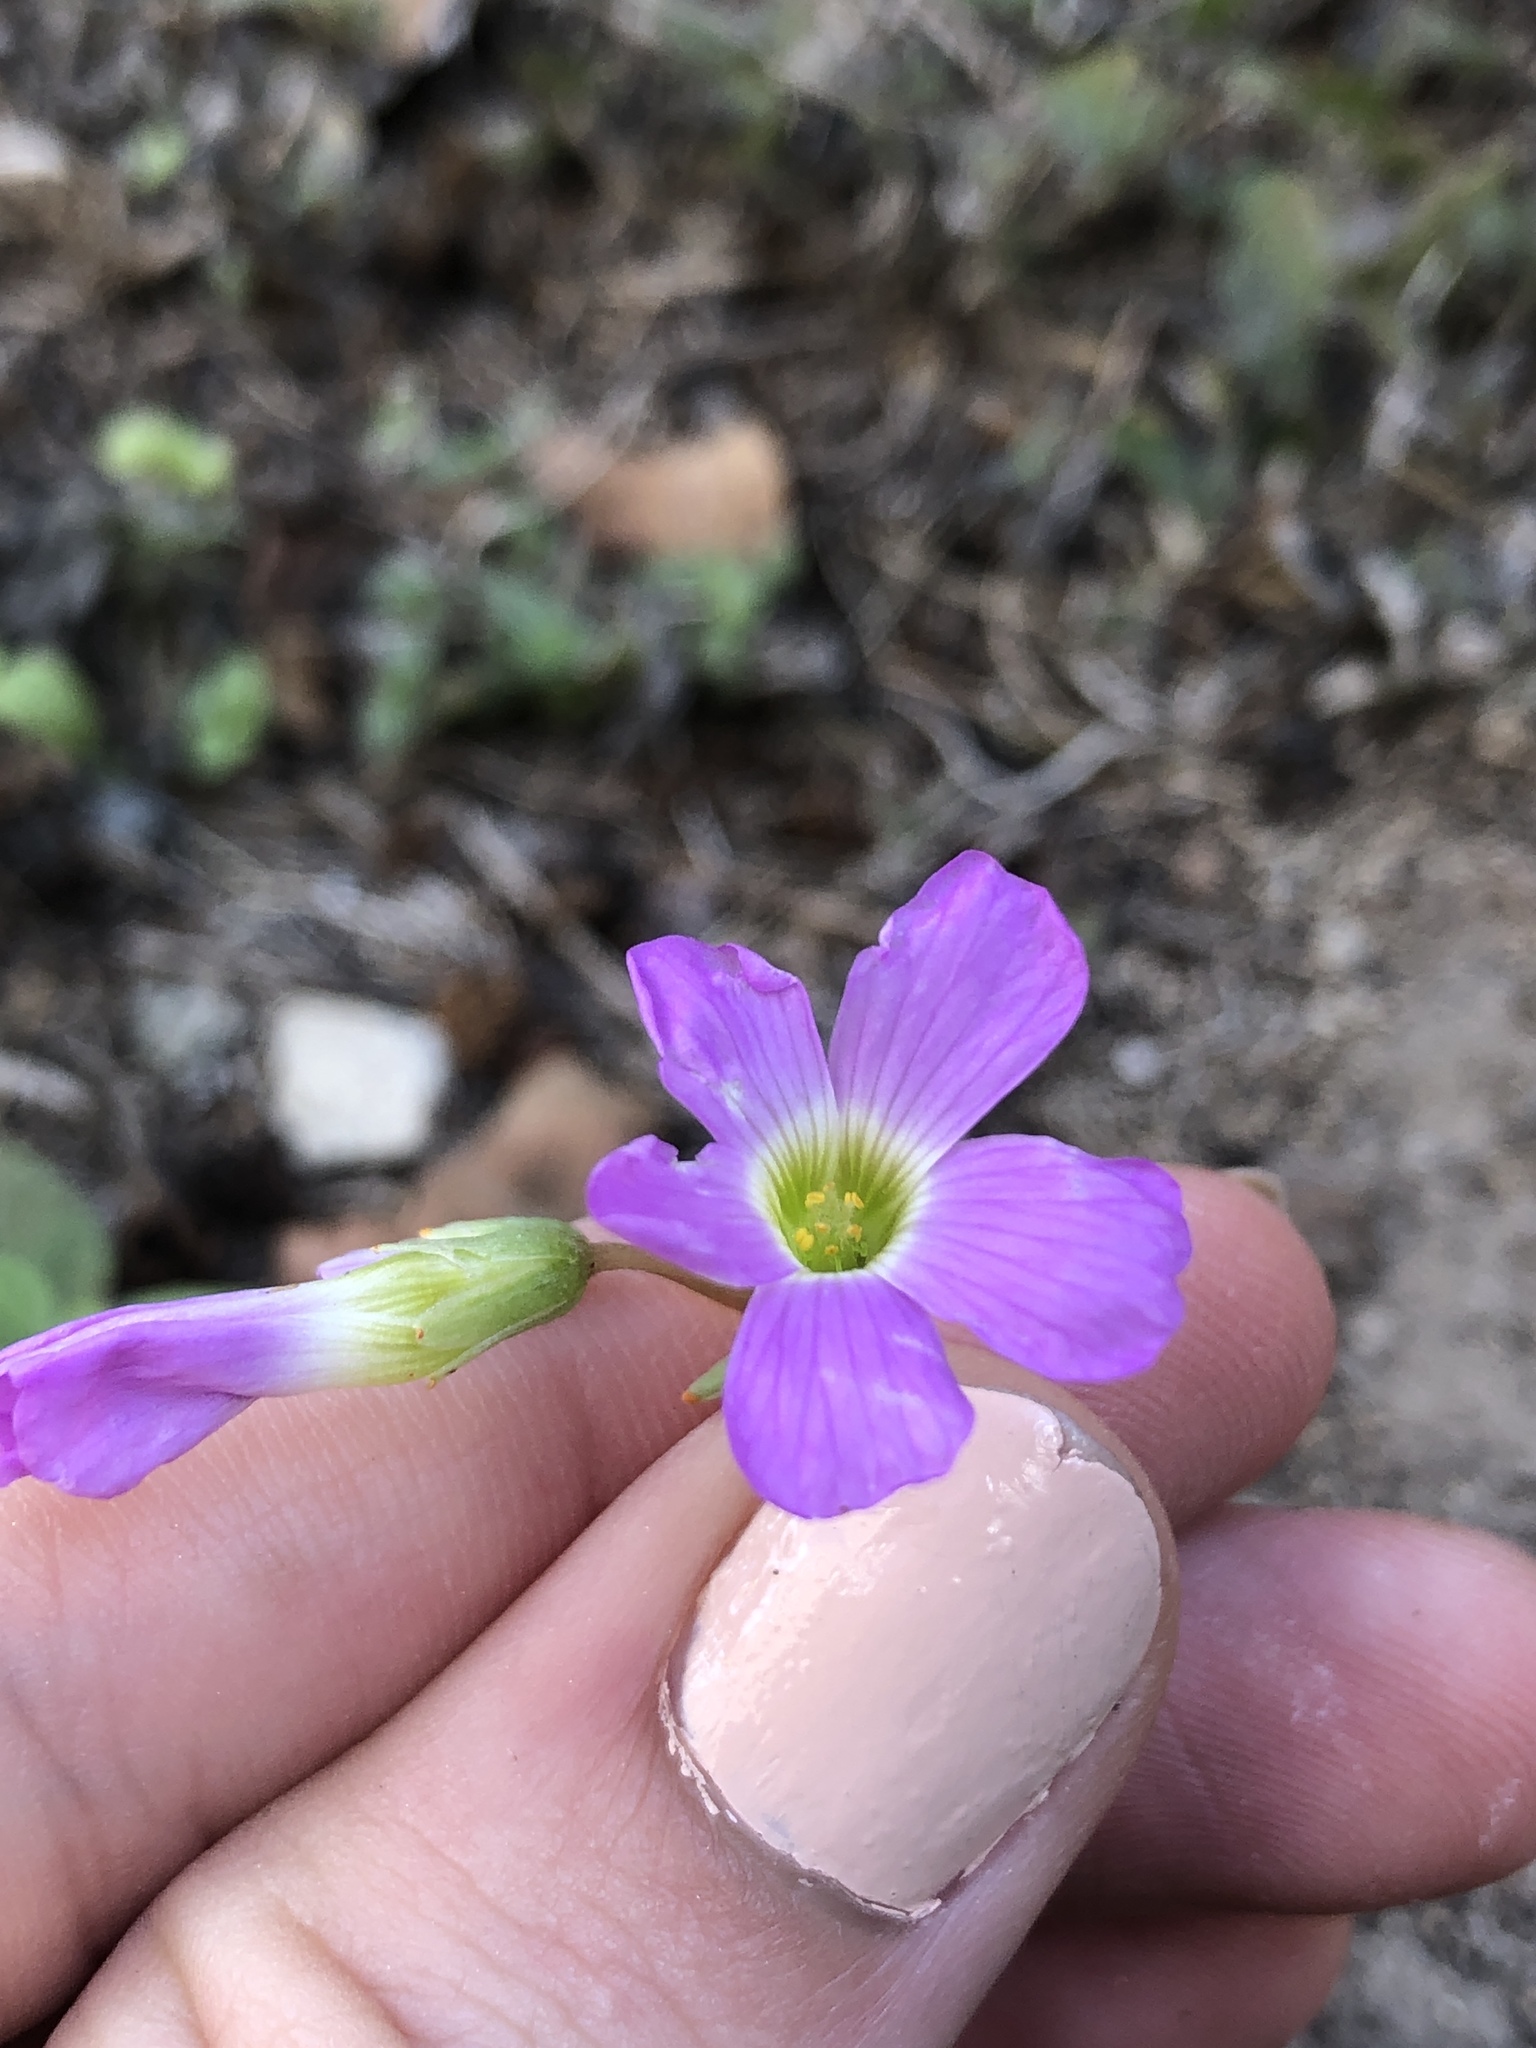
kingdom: Plantae
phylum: Tracheophyta
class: Magnoliopsida
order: Oxalidales
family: Oxalidaceae
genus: Oxalis
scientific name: Oxalis drummondii
